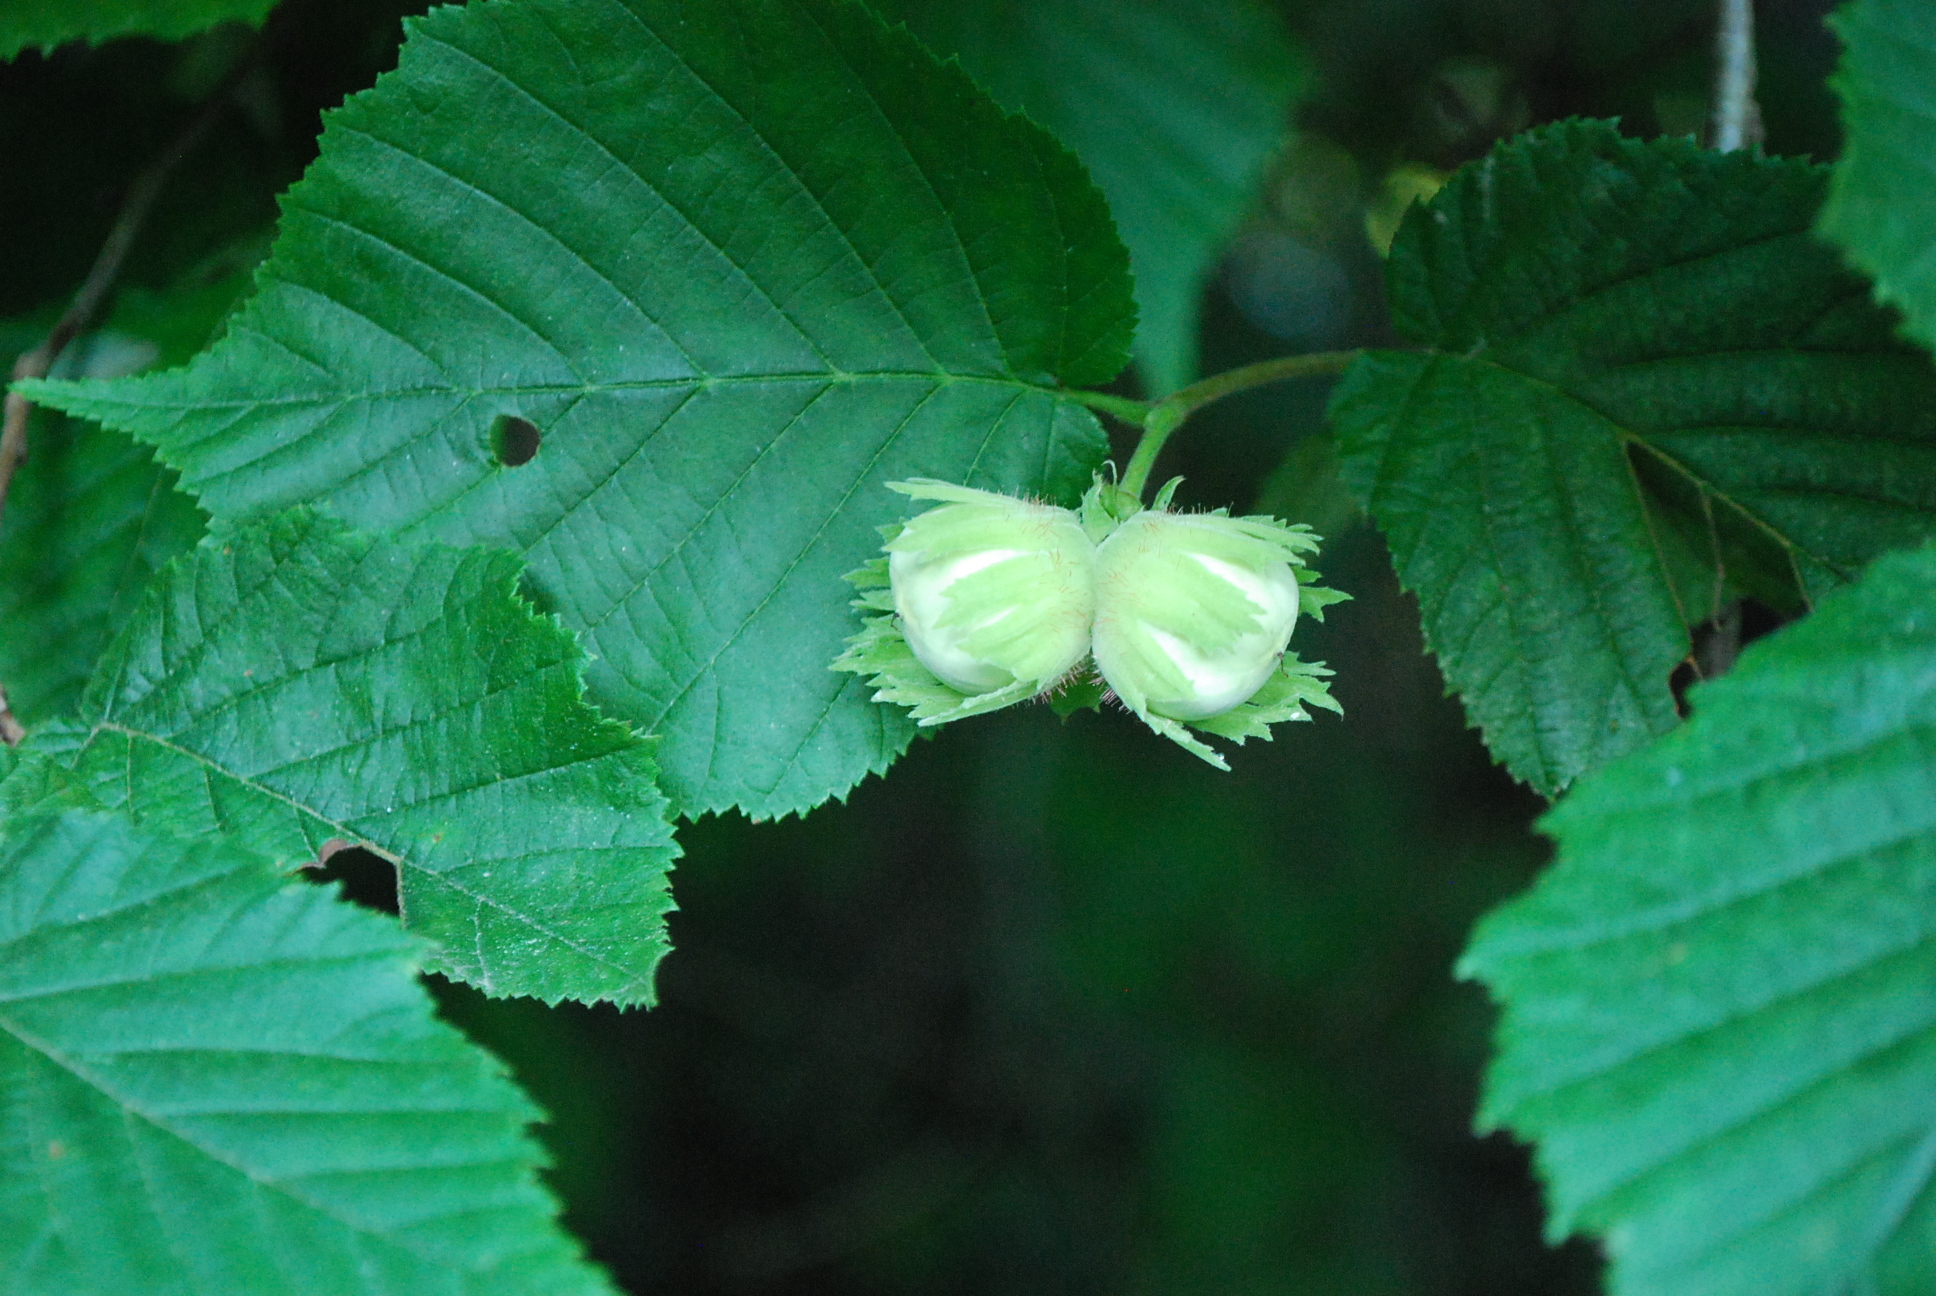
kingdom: Plantae
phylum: Tracheophyta
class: Magnoliopsida
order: Fagales
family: Betulaceae
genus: Corylus
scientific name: Corylus avellana
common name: European hazel
